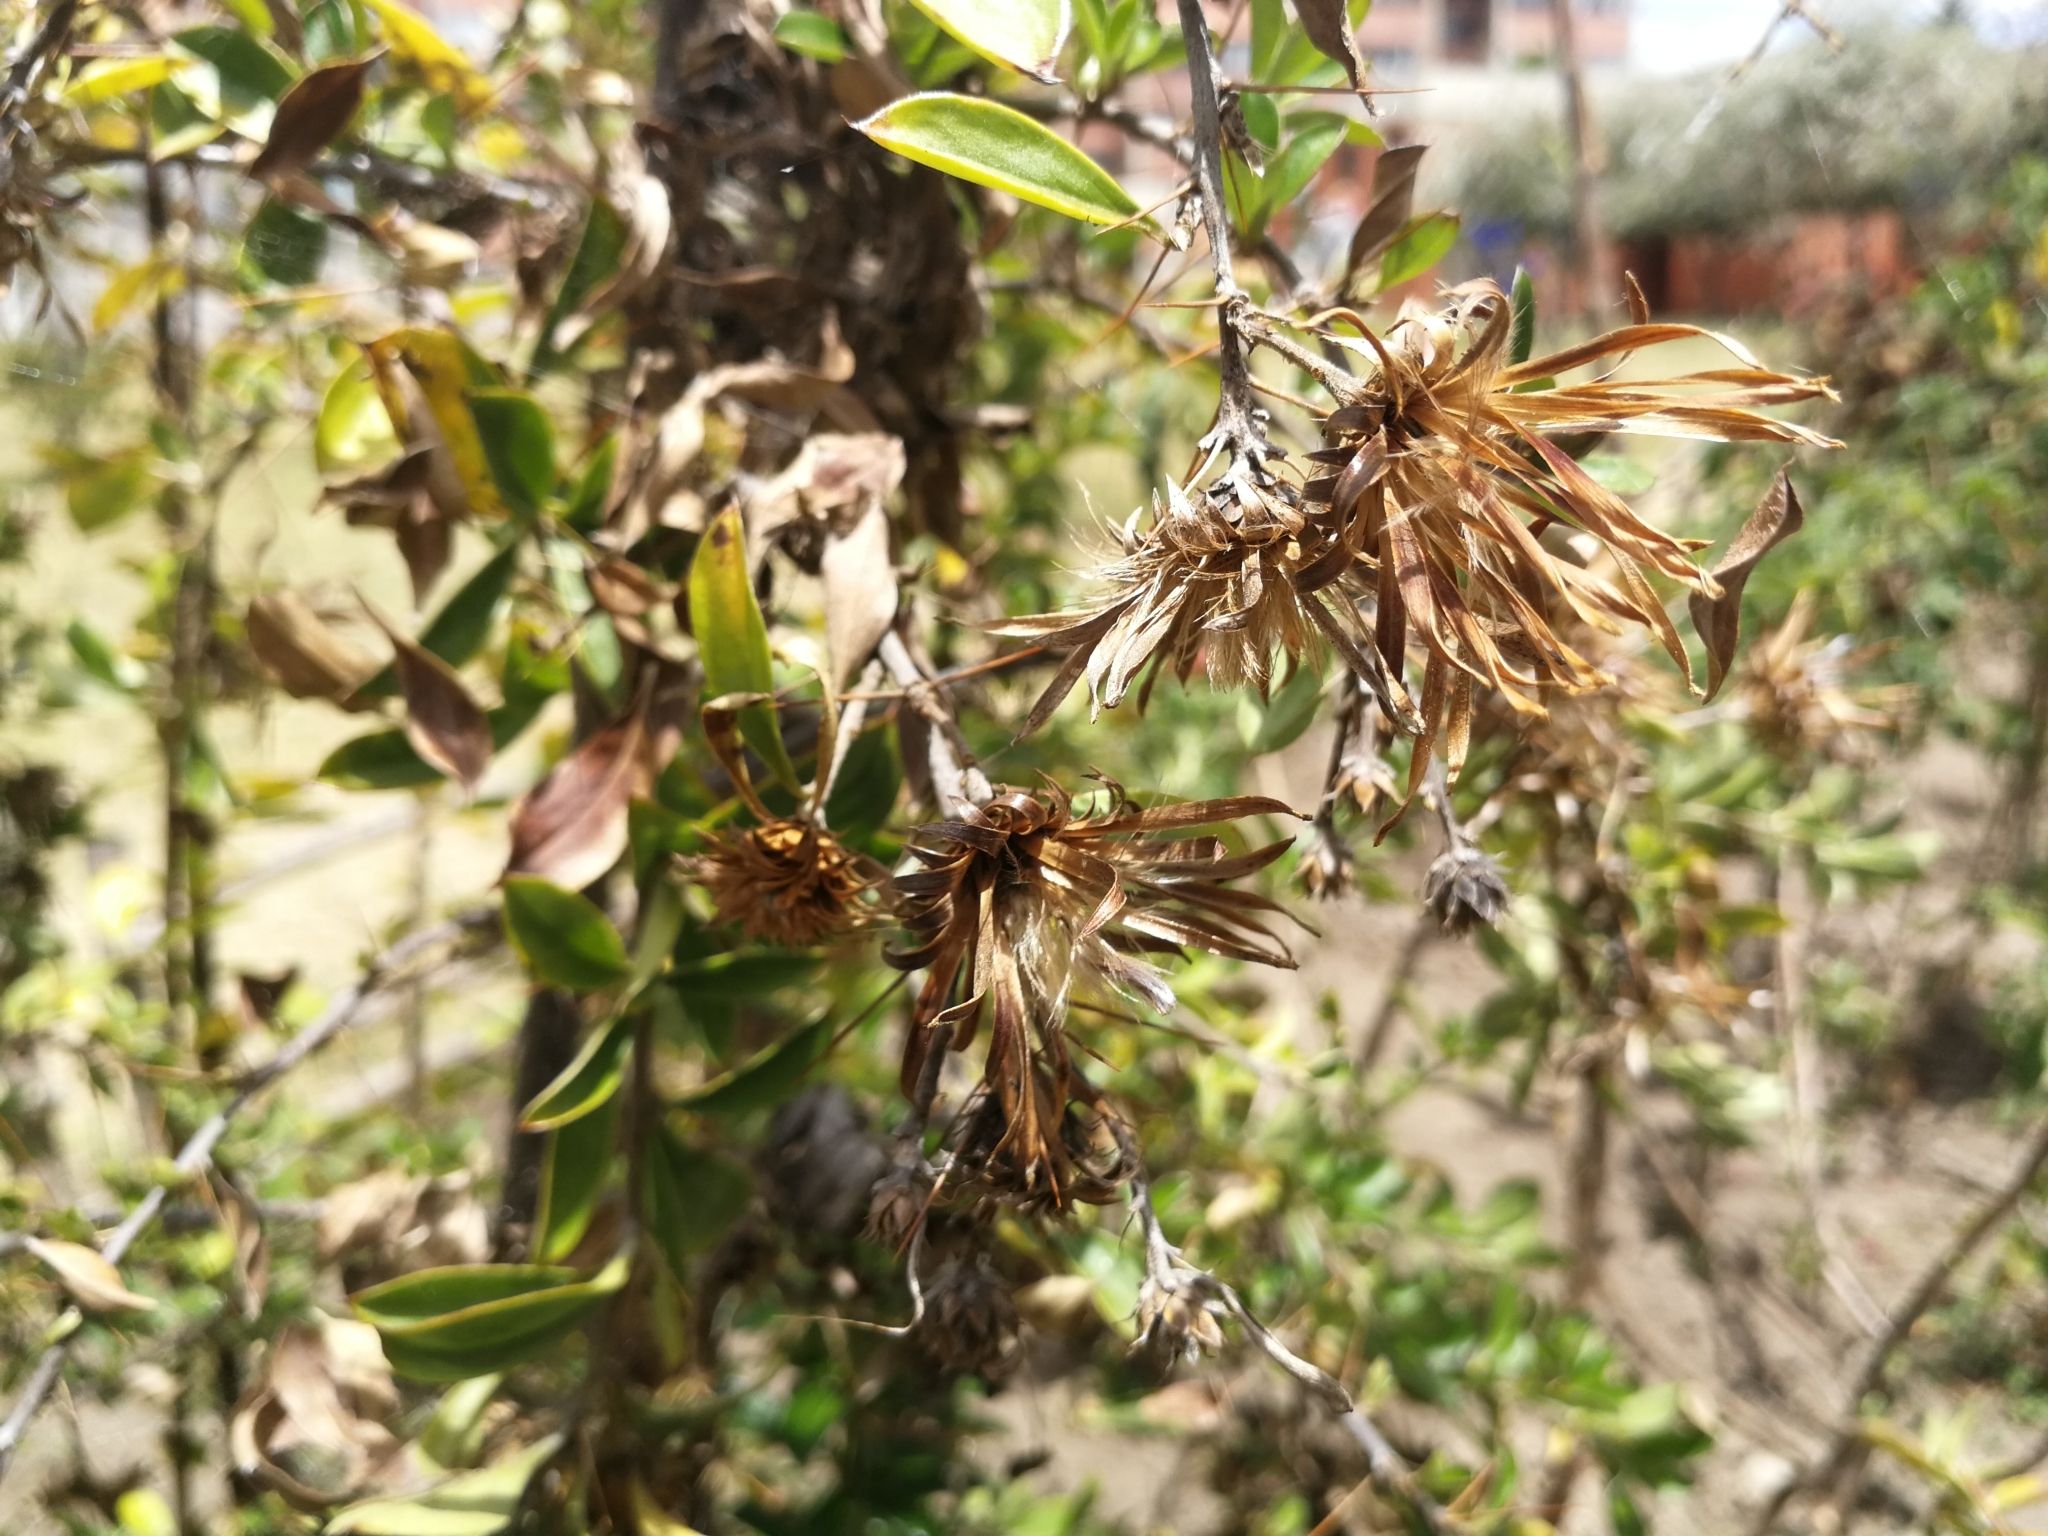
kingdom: Plantae
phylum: Tracheophyta
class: Magnoliopsida
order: Asterales
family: Asteraceae
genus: Barnadesia
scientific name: Barnadesia arborea
